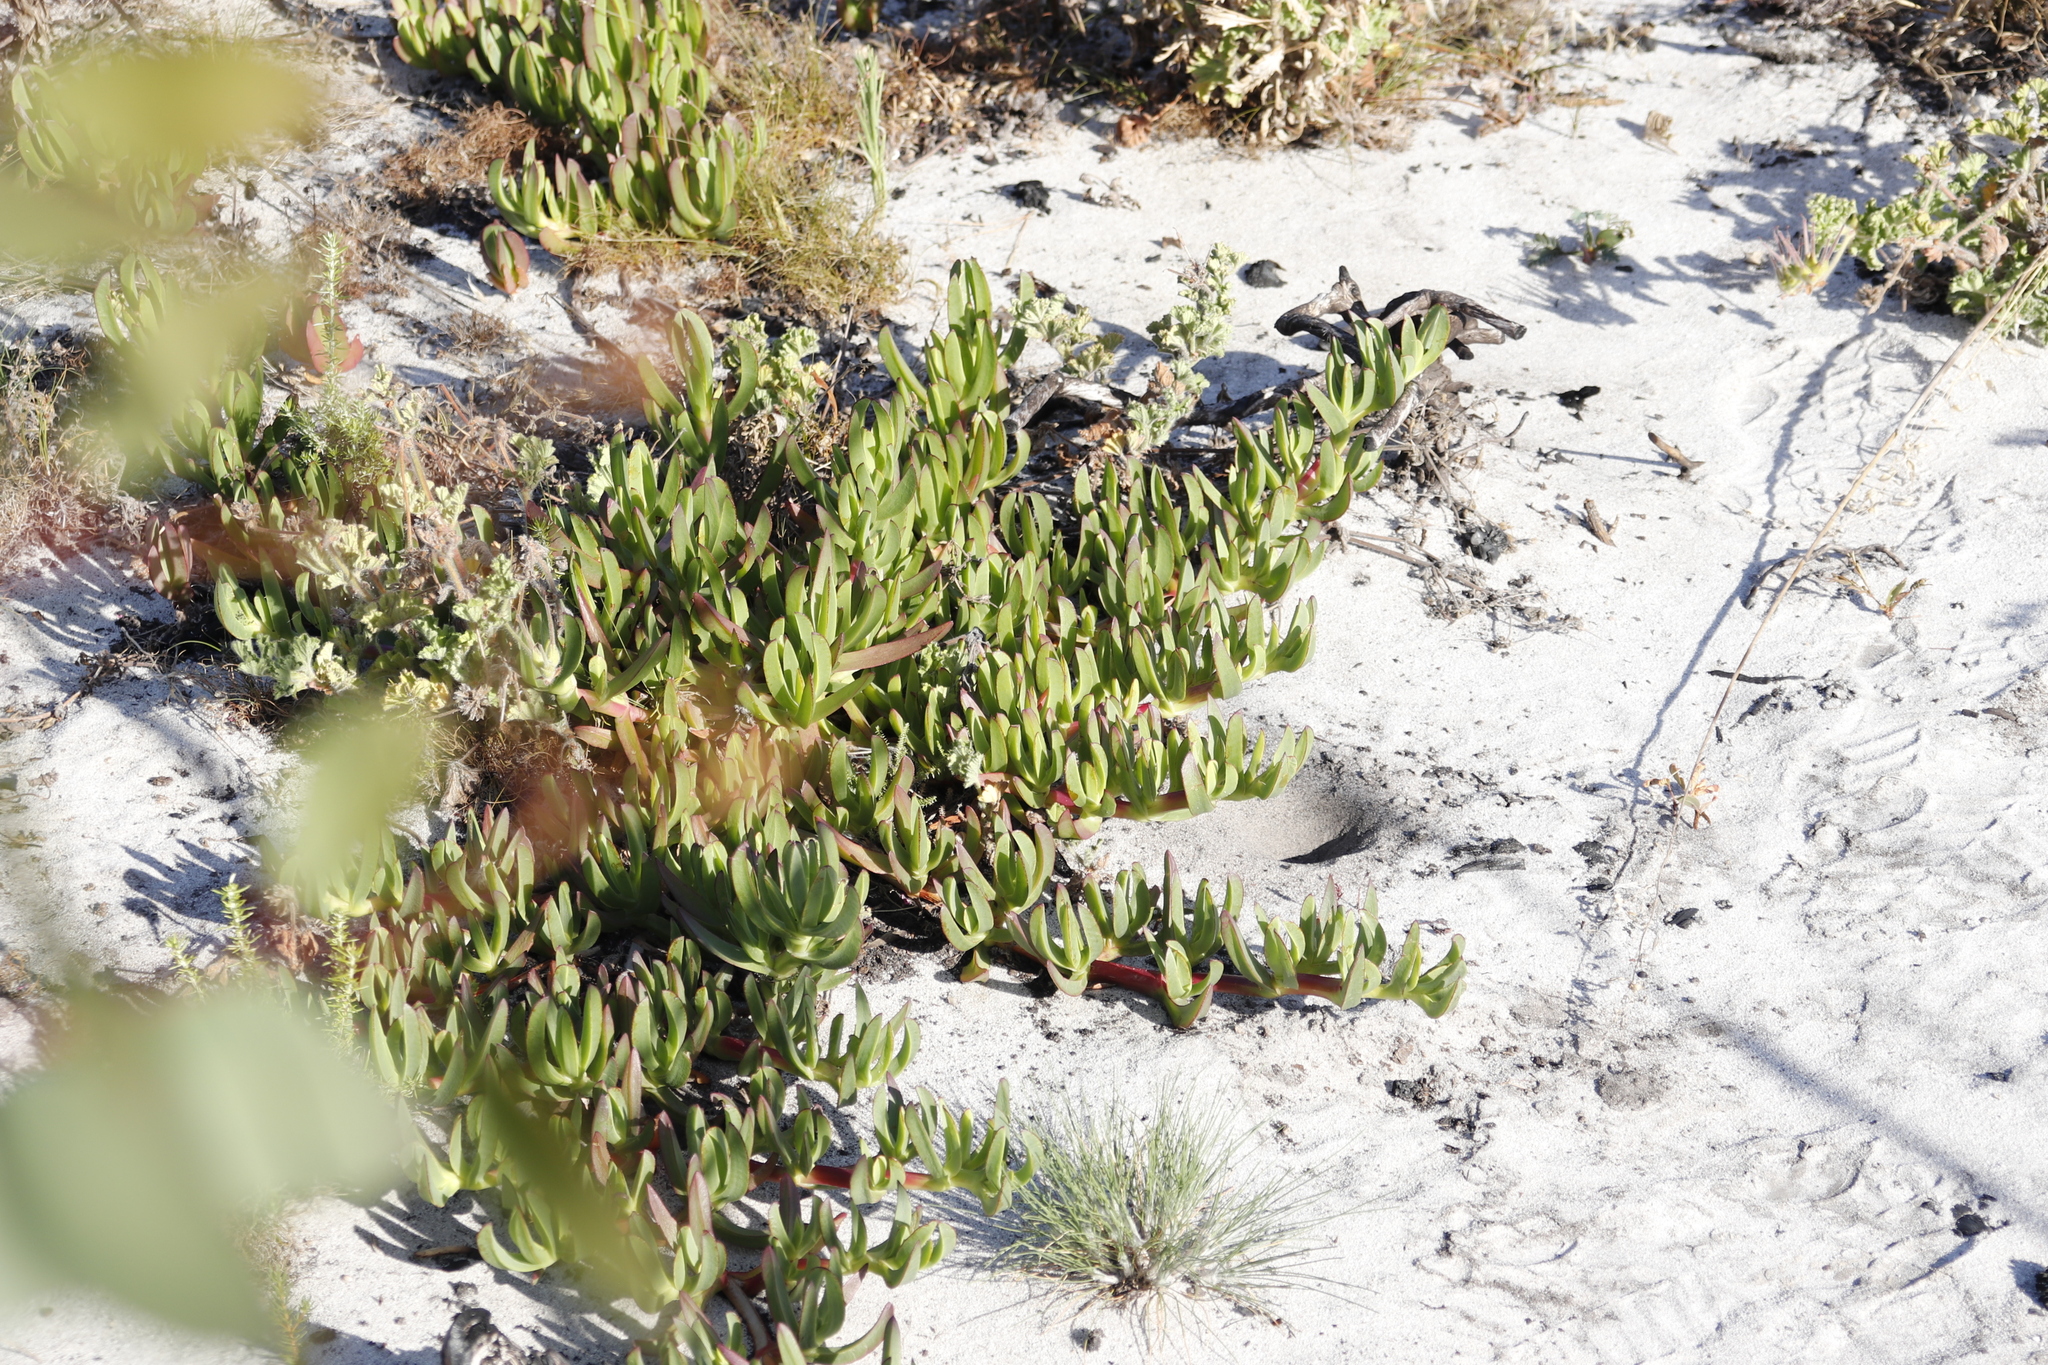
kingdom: Plantae
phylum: Tracheophyta
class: Magnoliopsida
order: Caryophyllales
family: Aizoaceae
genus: Carpobrotus
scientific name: Carpobrotus edulis
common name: Hottentot-fig
